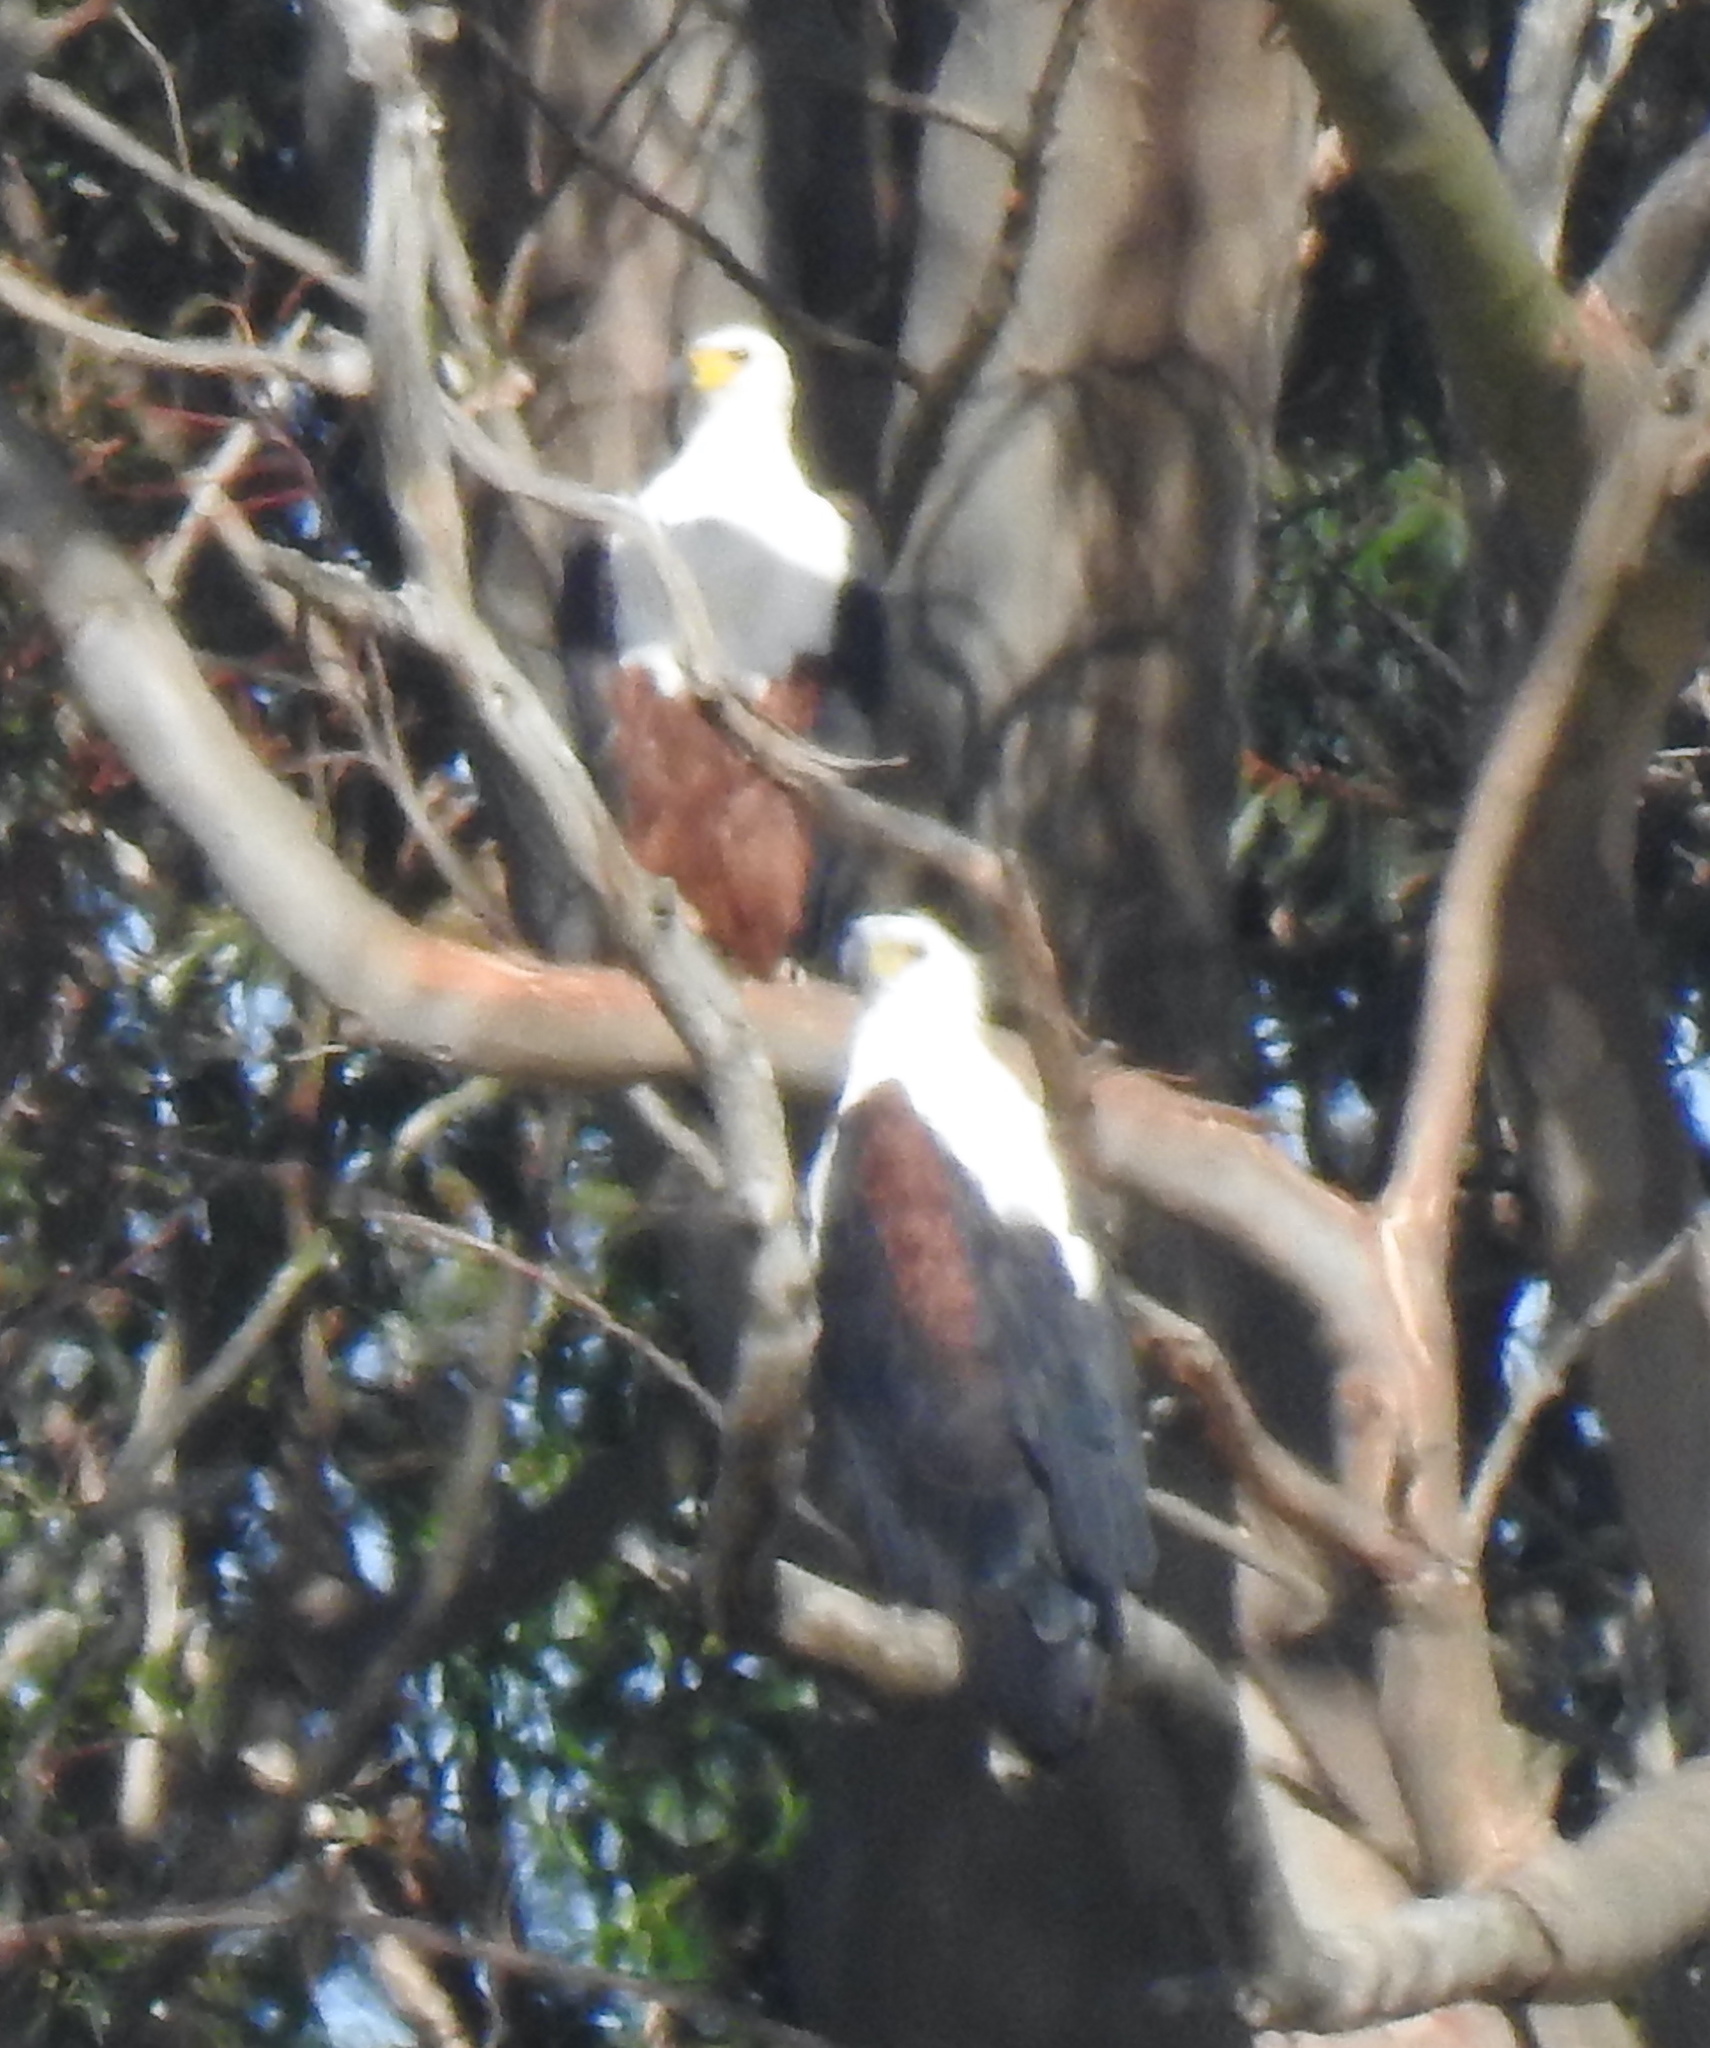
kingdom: Animalia
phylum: Chordata
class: Aves
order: Accipitriformes
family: Accipitridae
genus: Haliaeetus
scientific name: Haliaeetus vocifer
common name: African fish eagle
